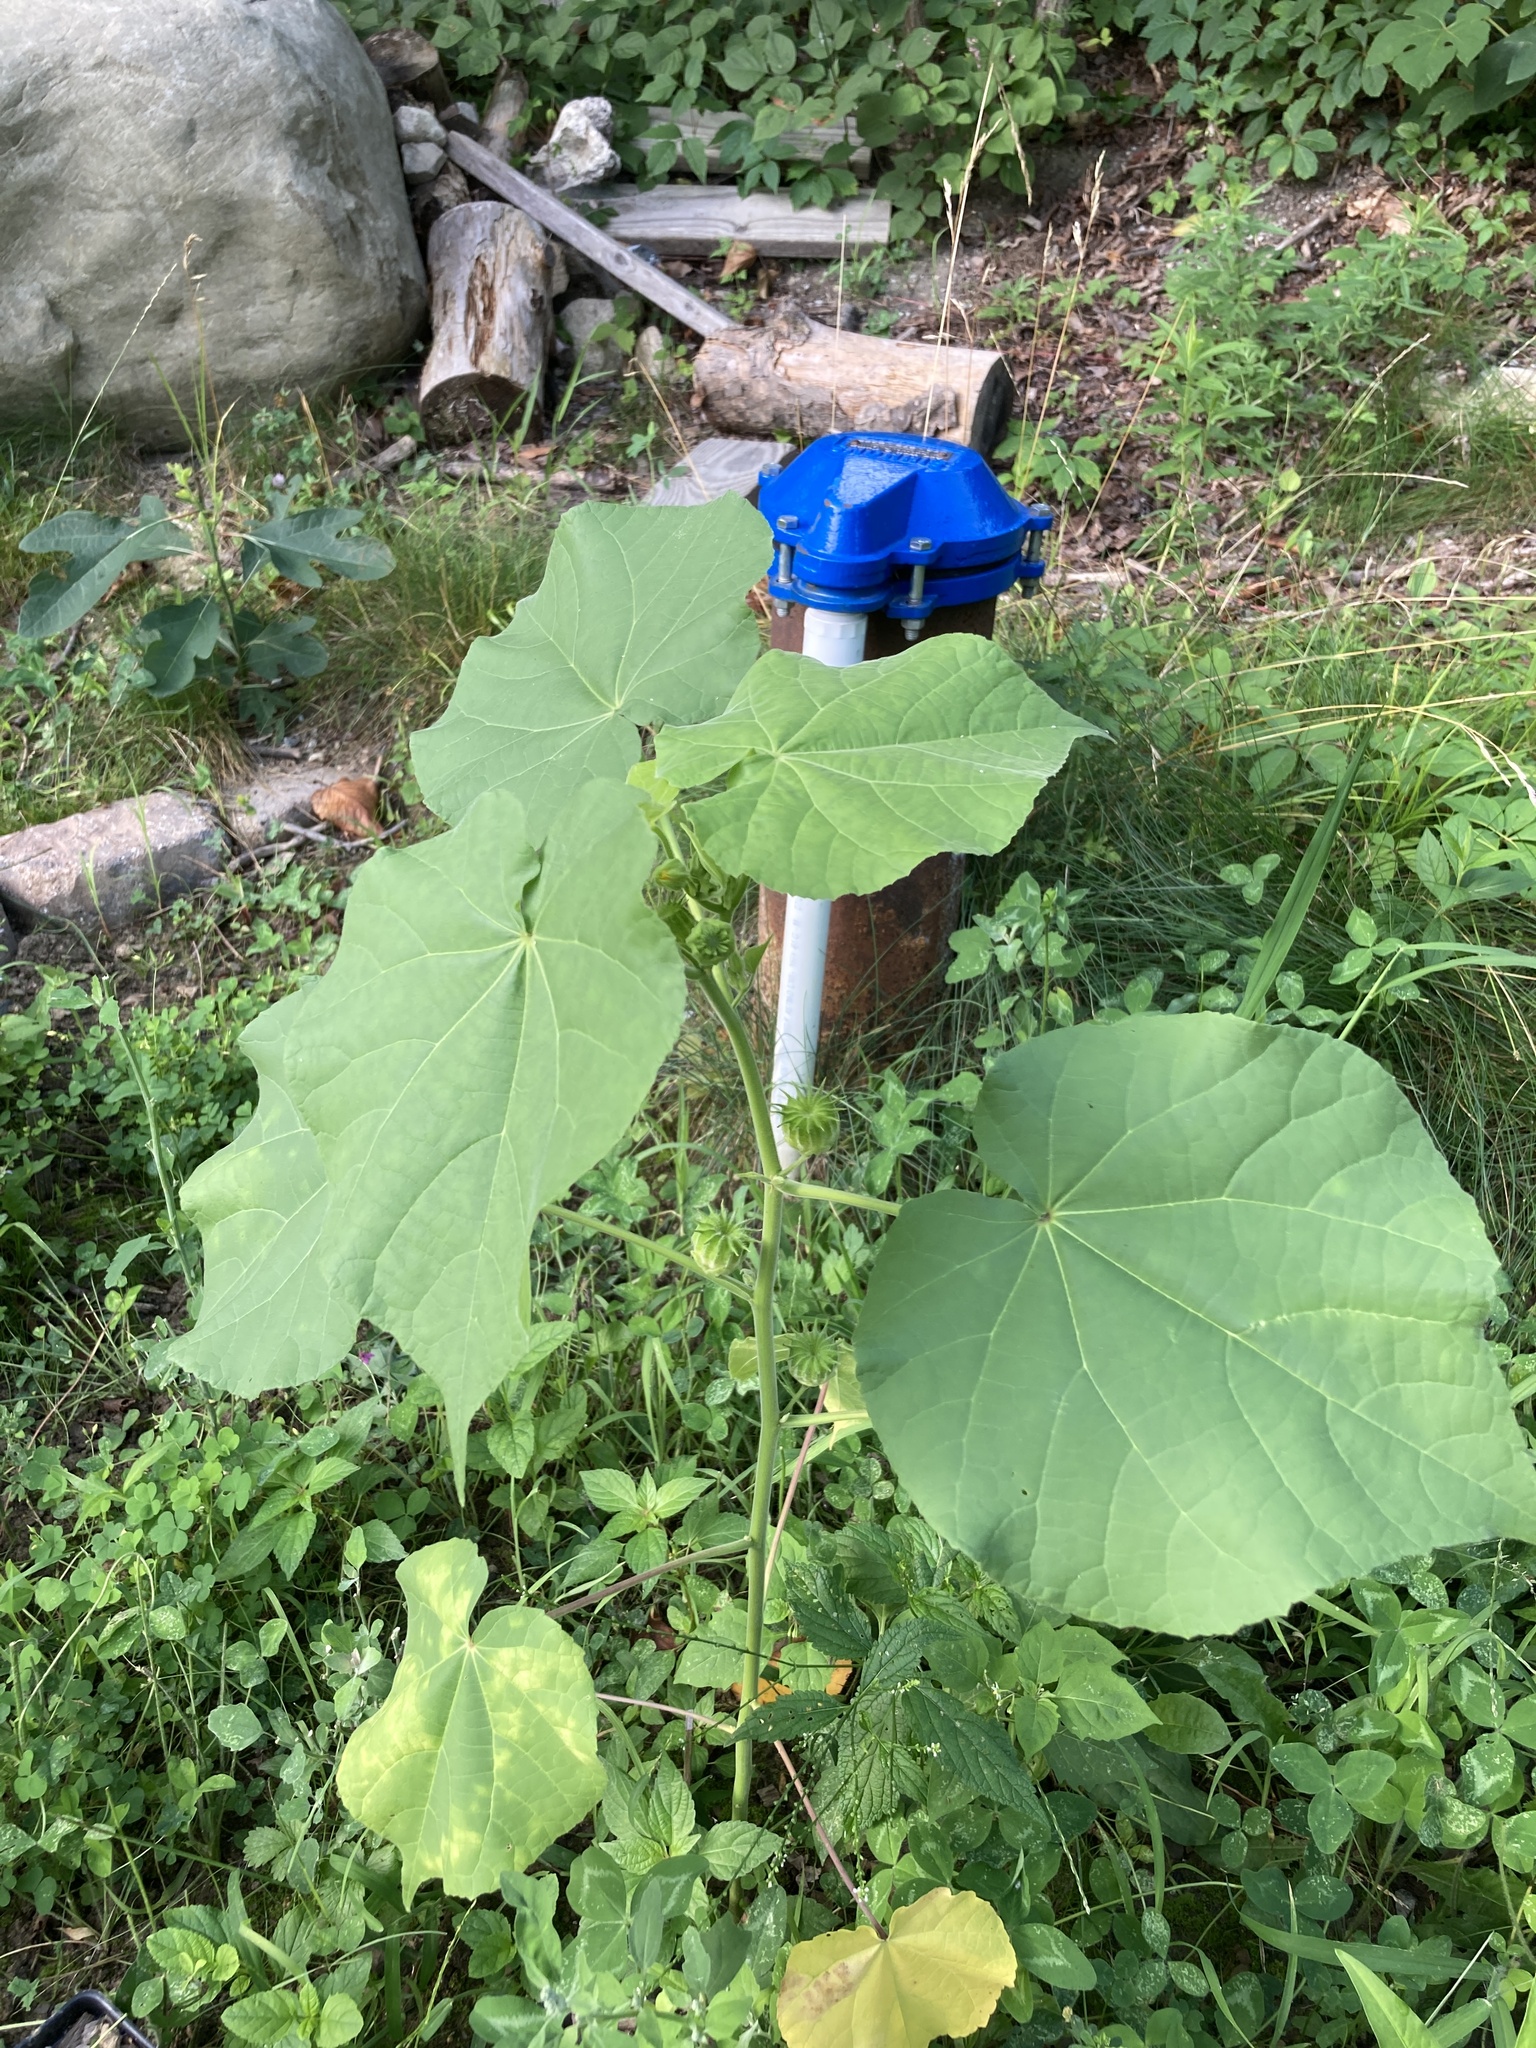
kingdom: Plantae
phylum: Tracheophyta
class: Magnoliopsida
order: Malvales
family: Malvaceae
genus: Abutilon
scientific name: Abutilon theophrasti
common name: Velvetleaf
